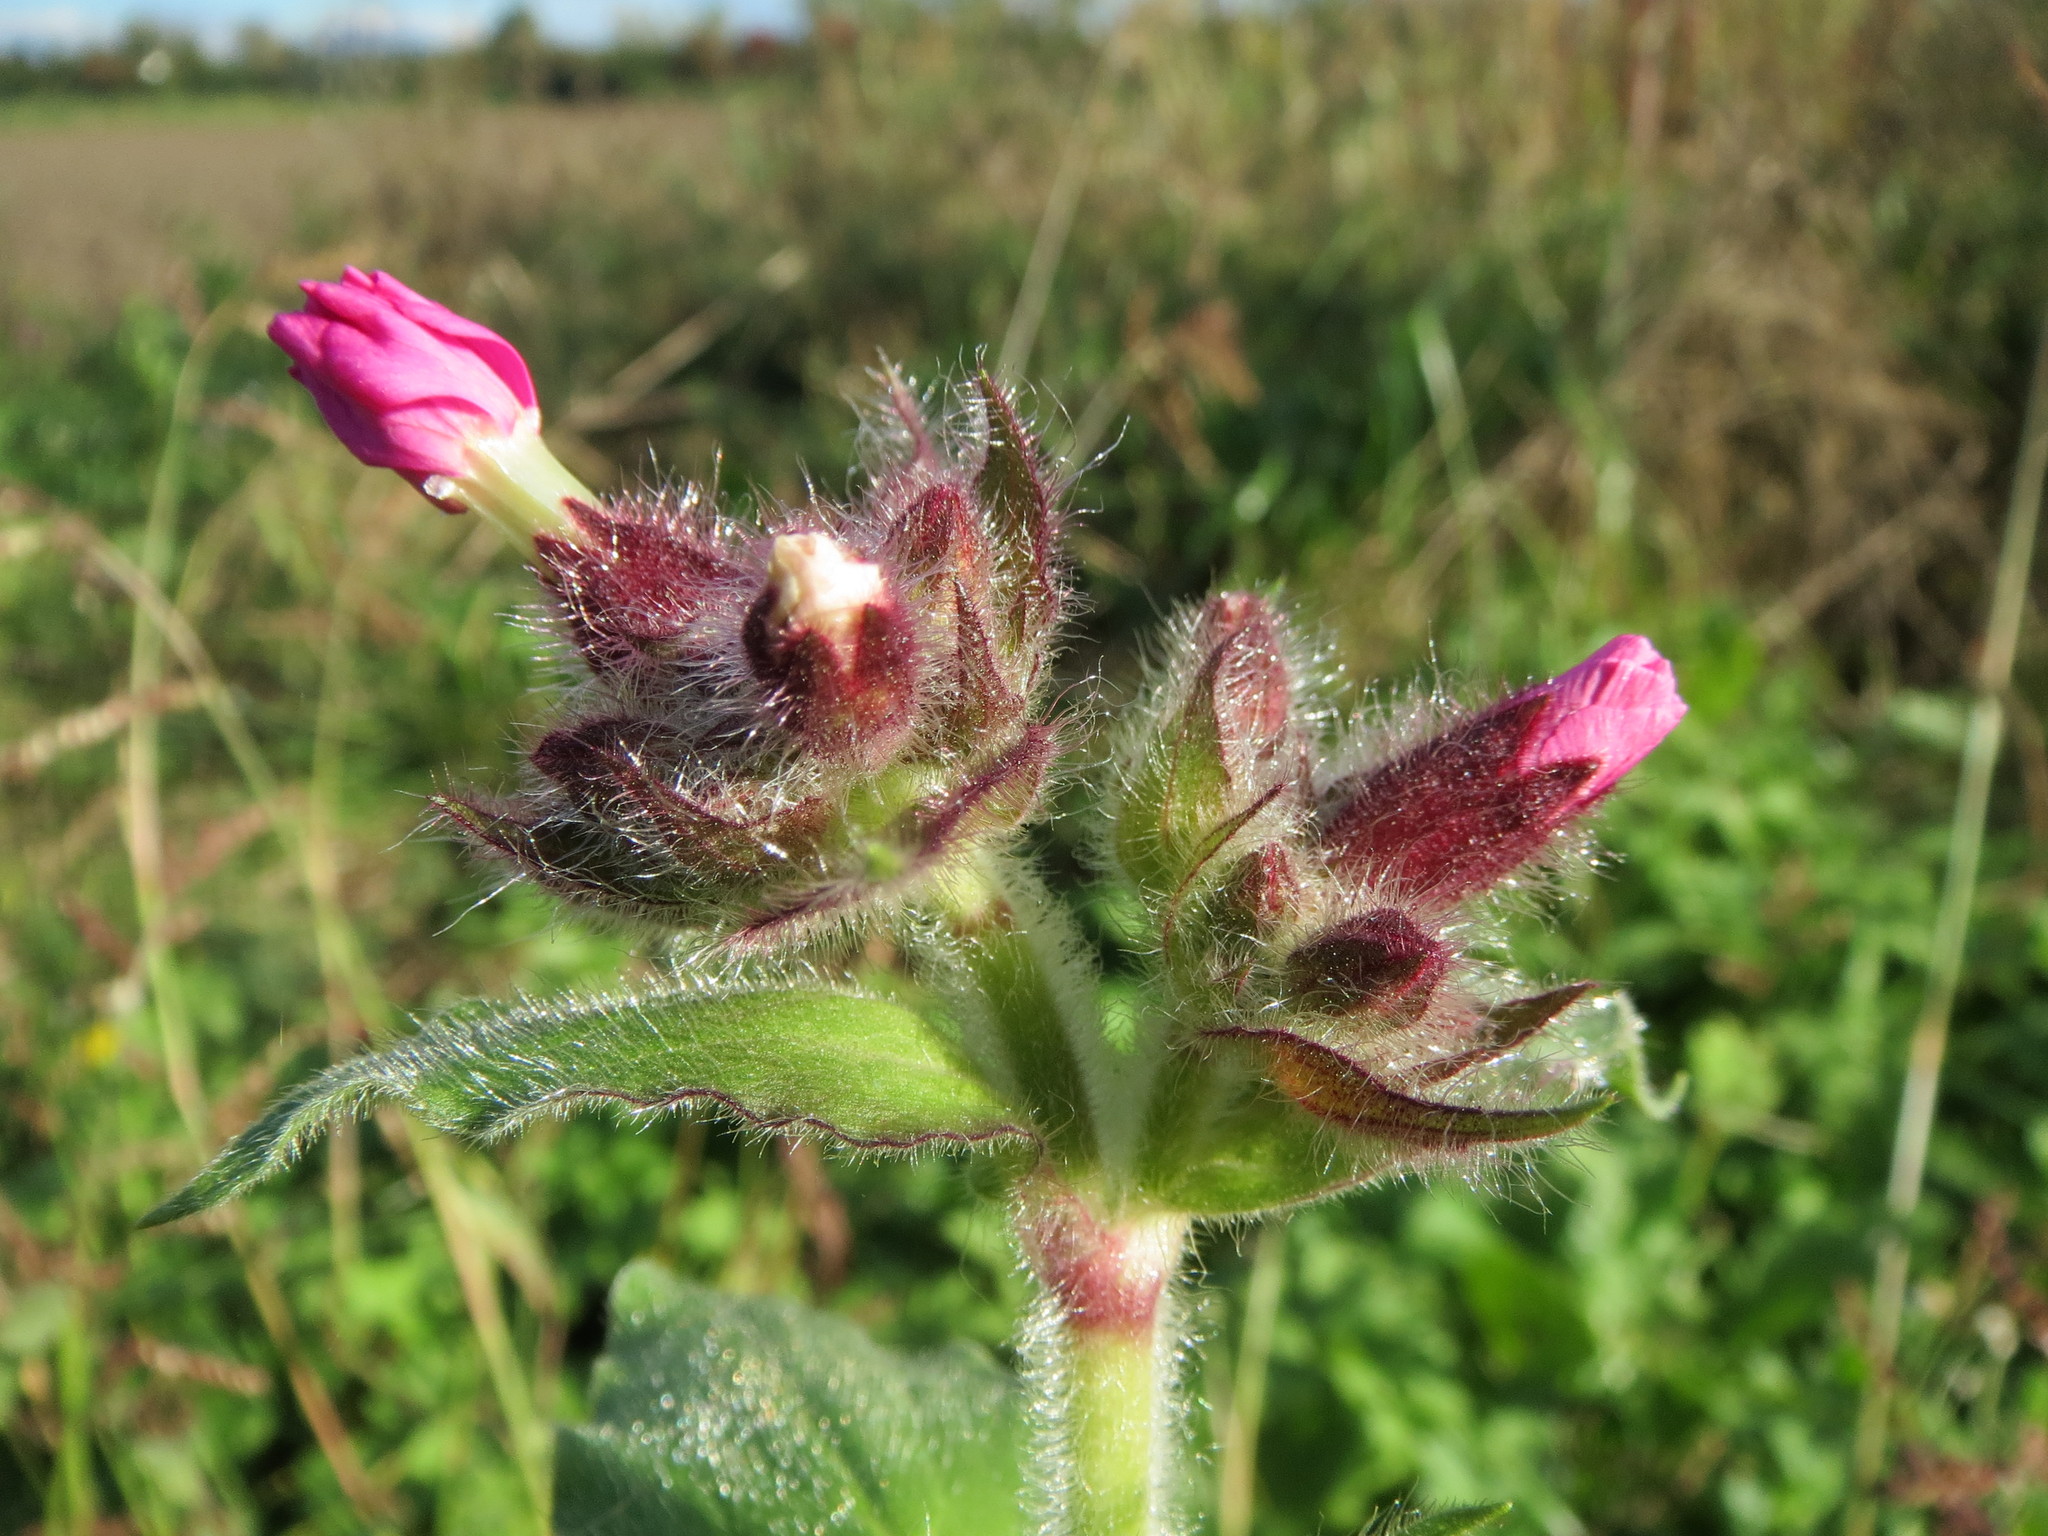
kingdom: Plantae
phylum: Tracheophyta
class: Magnoliopsida
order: Caryophyllales
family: Caryophyllaceae
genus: Silene
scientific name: Silene dioica
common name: Red campion
